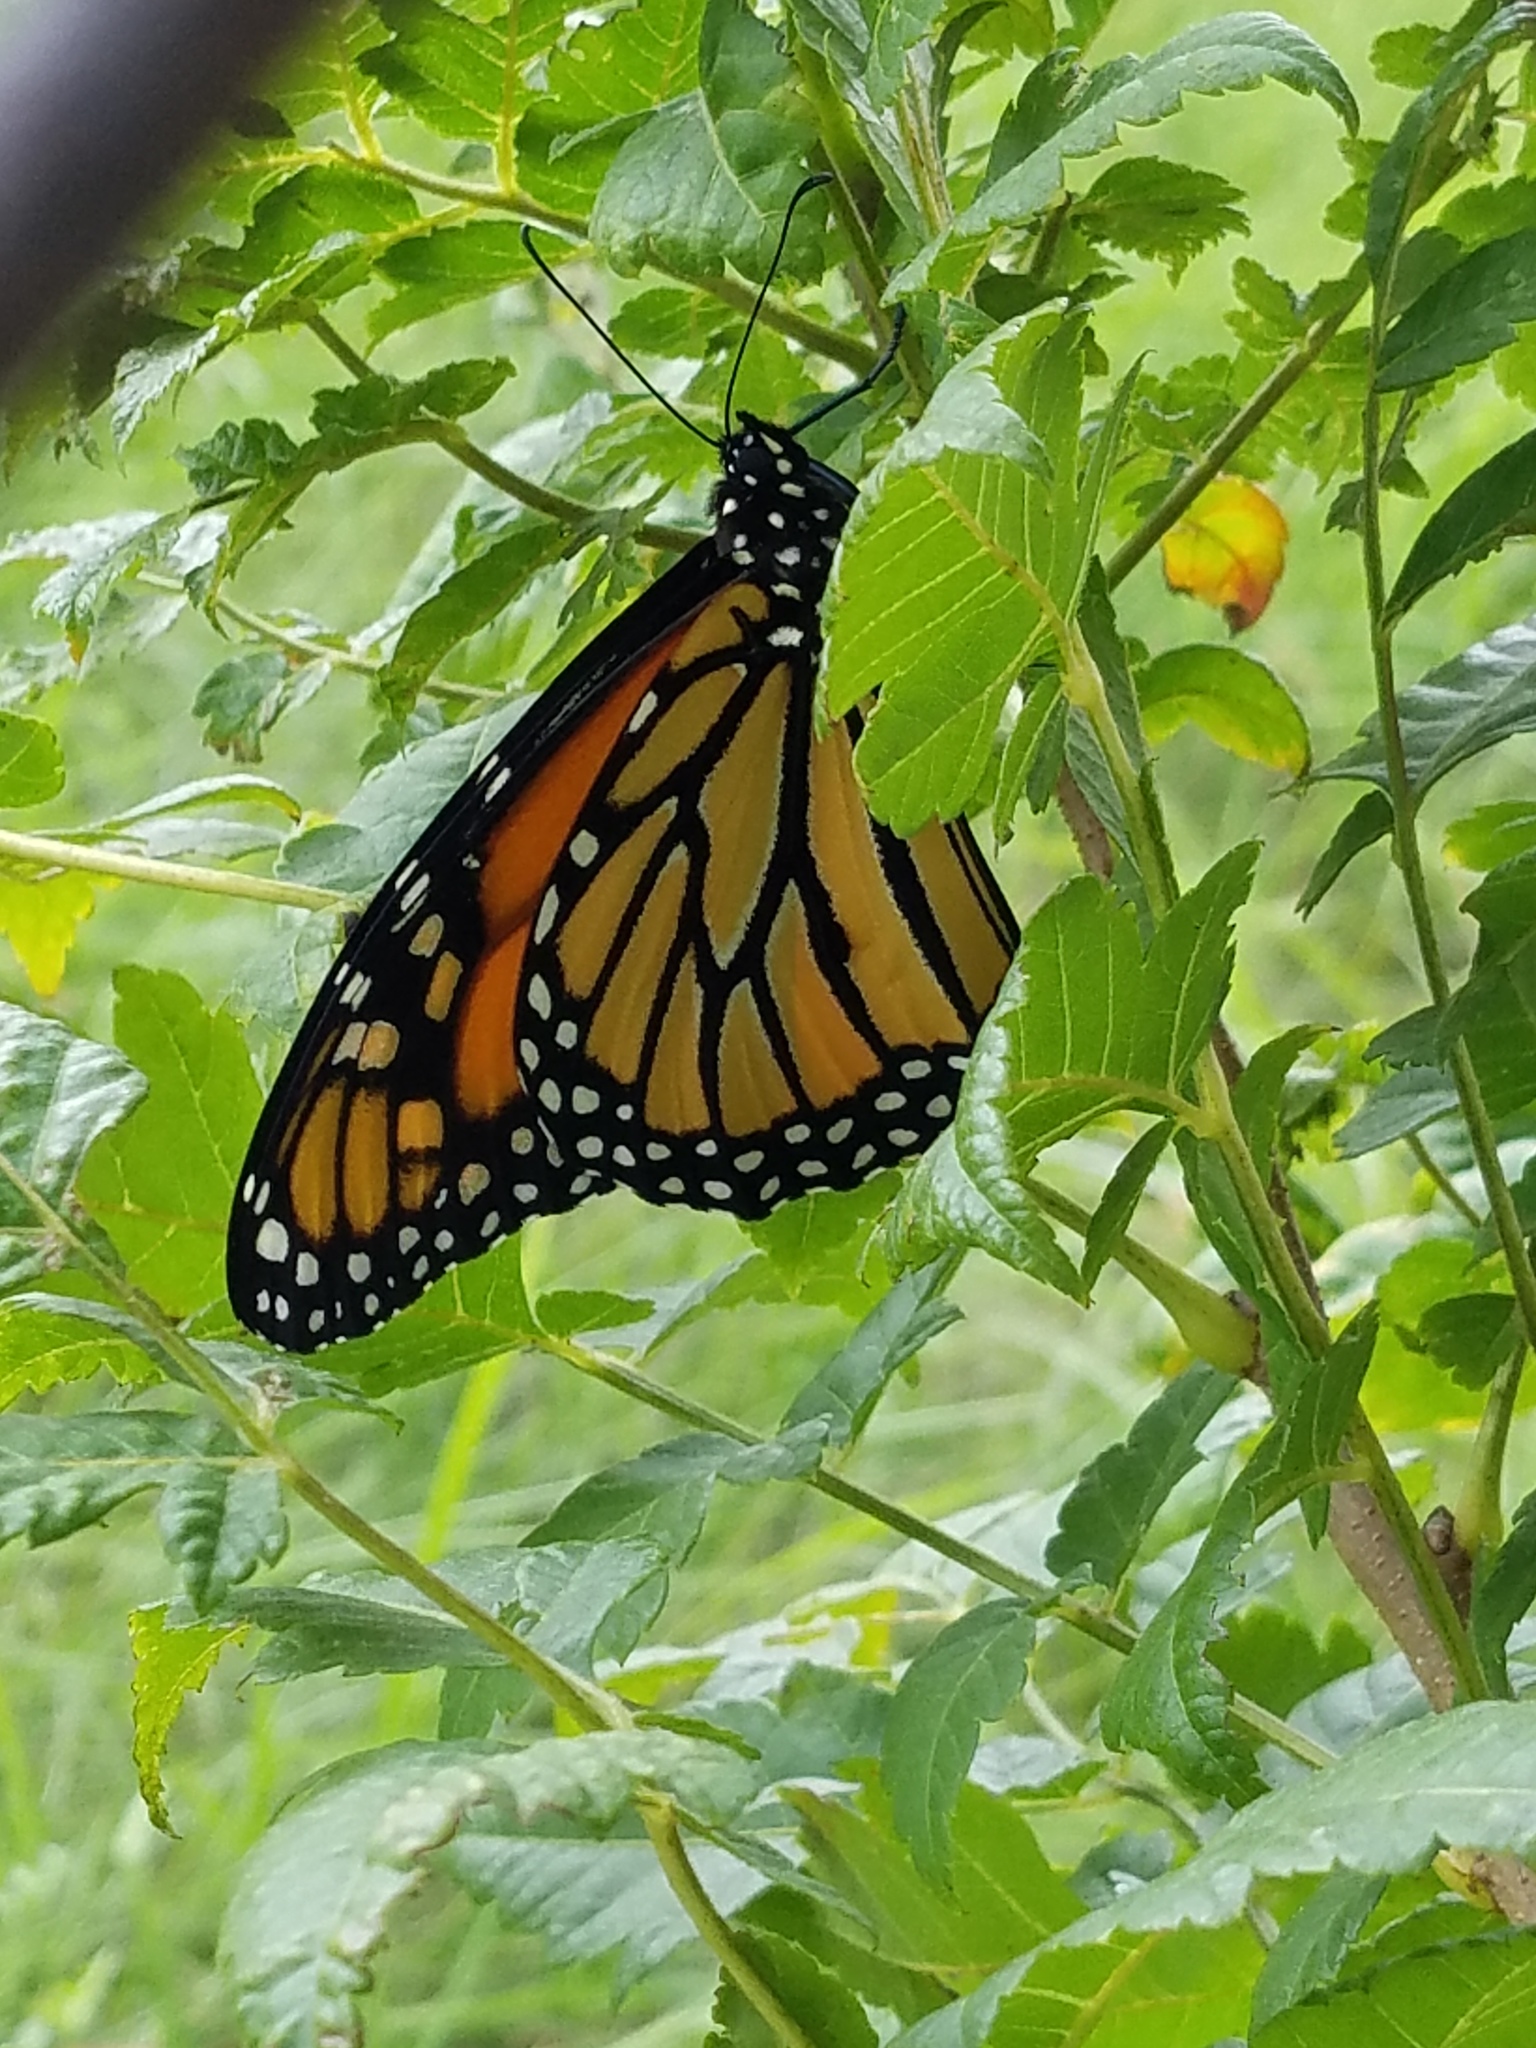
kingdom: Animalia
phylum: Arthropoda
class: Insecta
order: Lepidoptera
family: Nymphalidae
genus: Danaus
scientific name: Danaus plexippus
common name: Monarch
